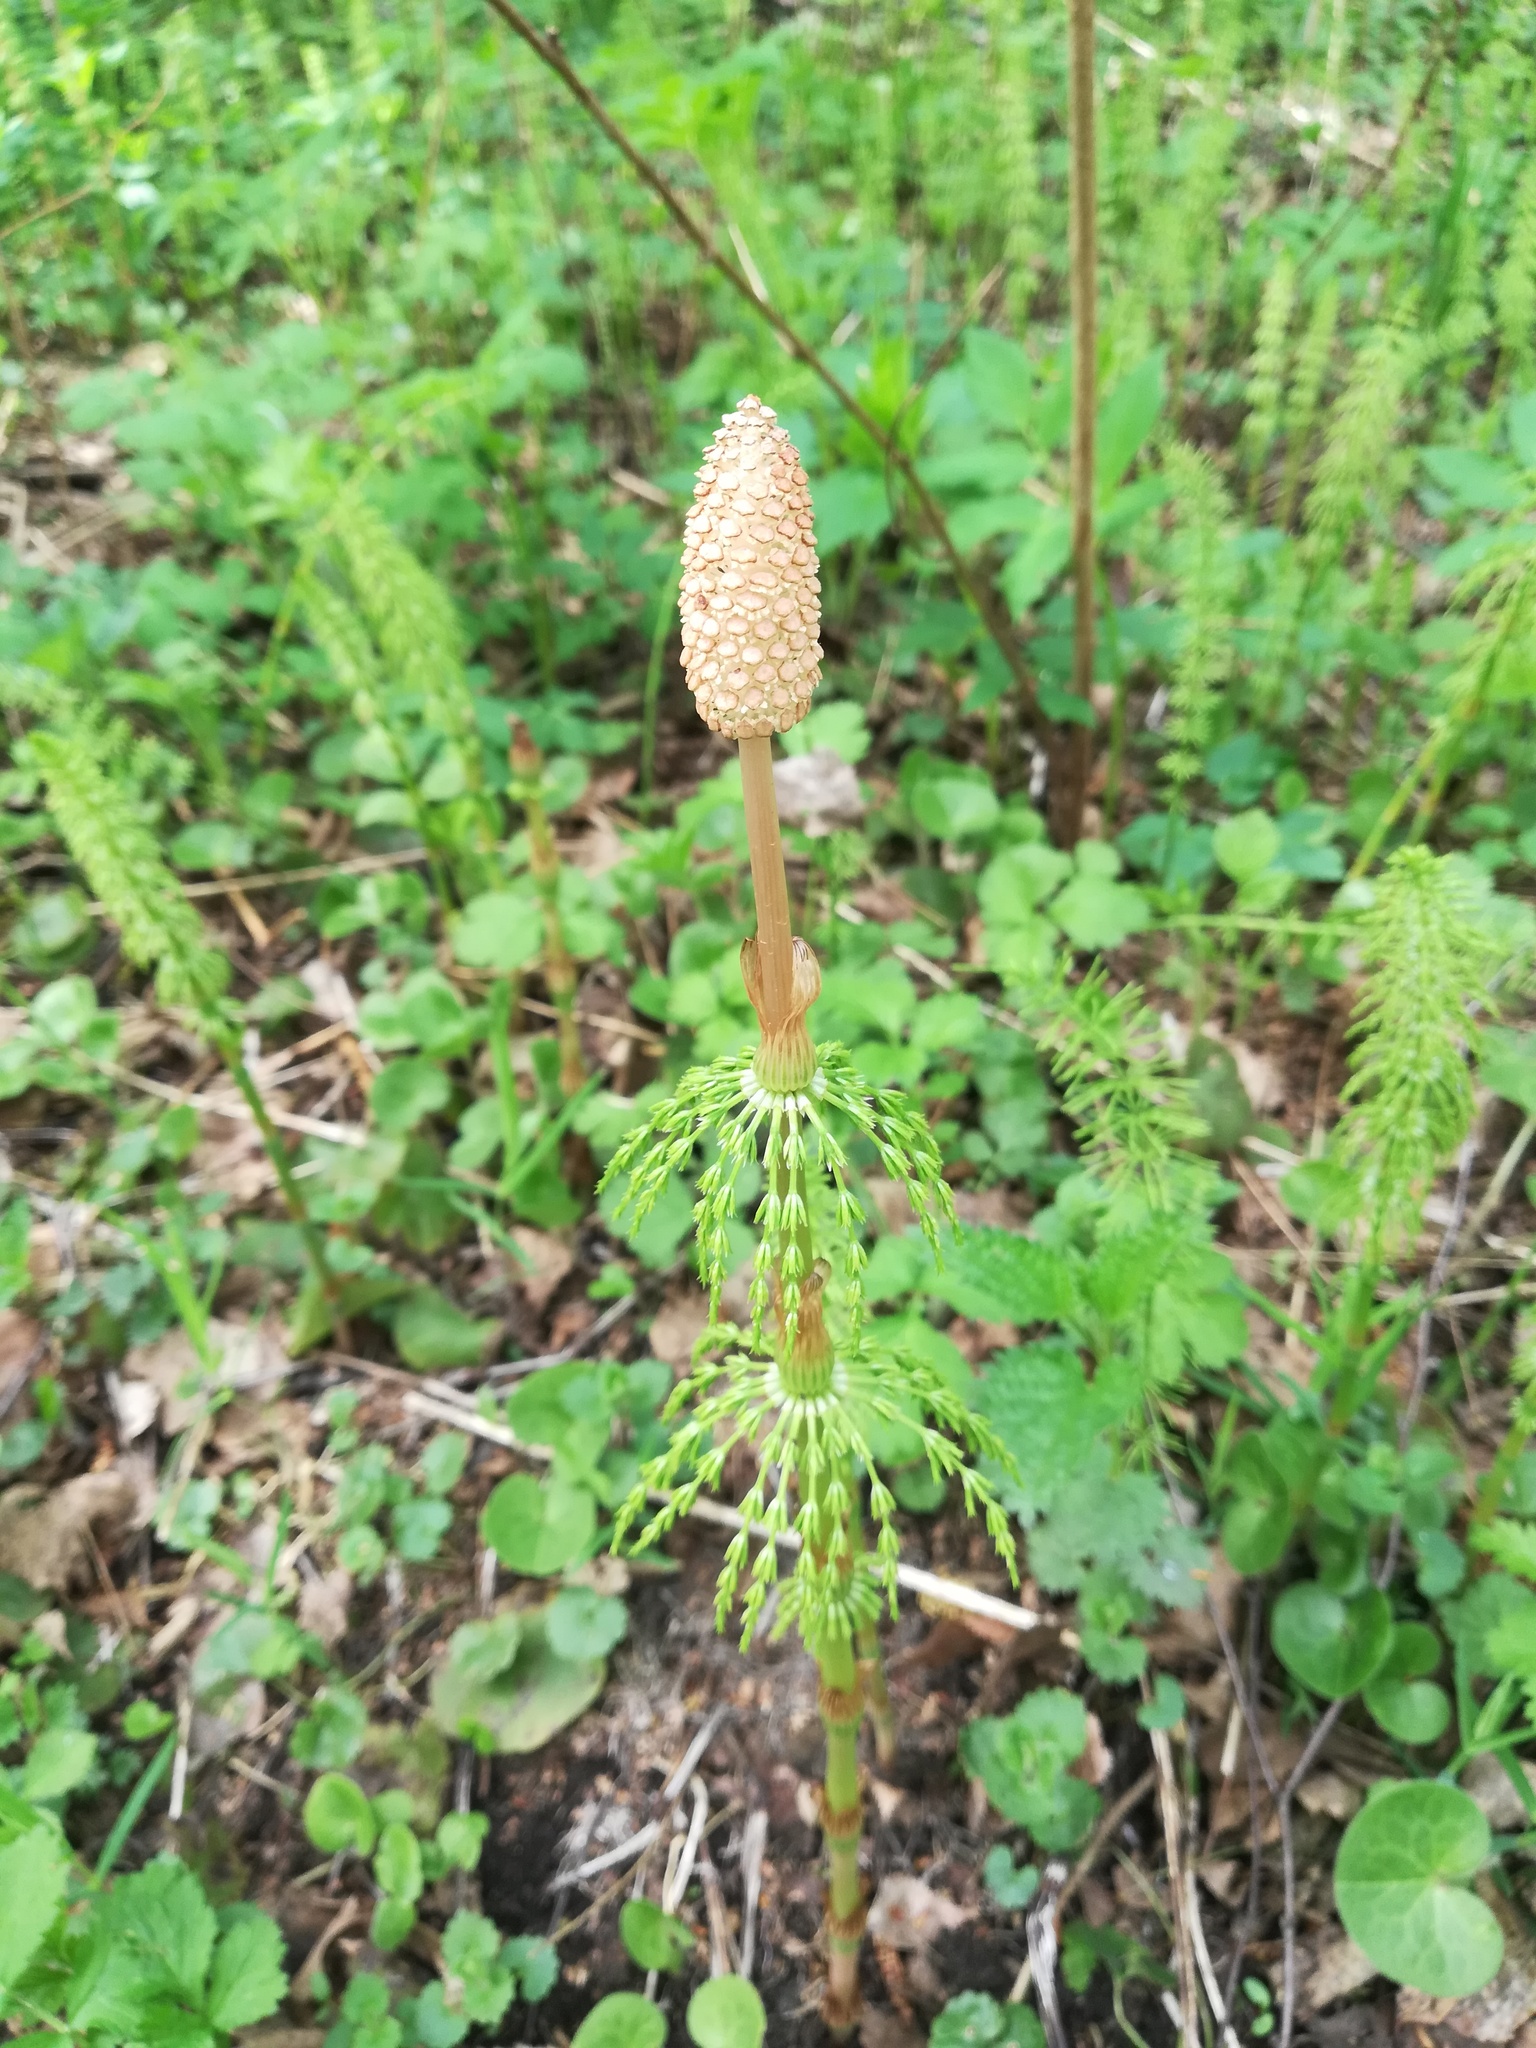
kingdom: Plantae
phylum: Tracheophyta
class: Polypodiopsida
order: Equisetales
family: Equisetaceae
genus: Equisetum
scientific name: Equisetum sylvaticum
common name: Wood horsetail
